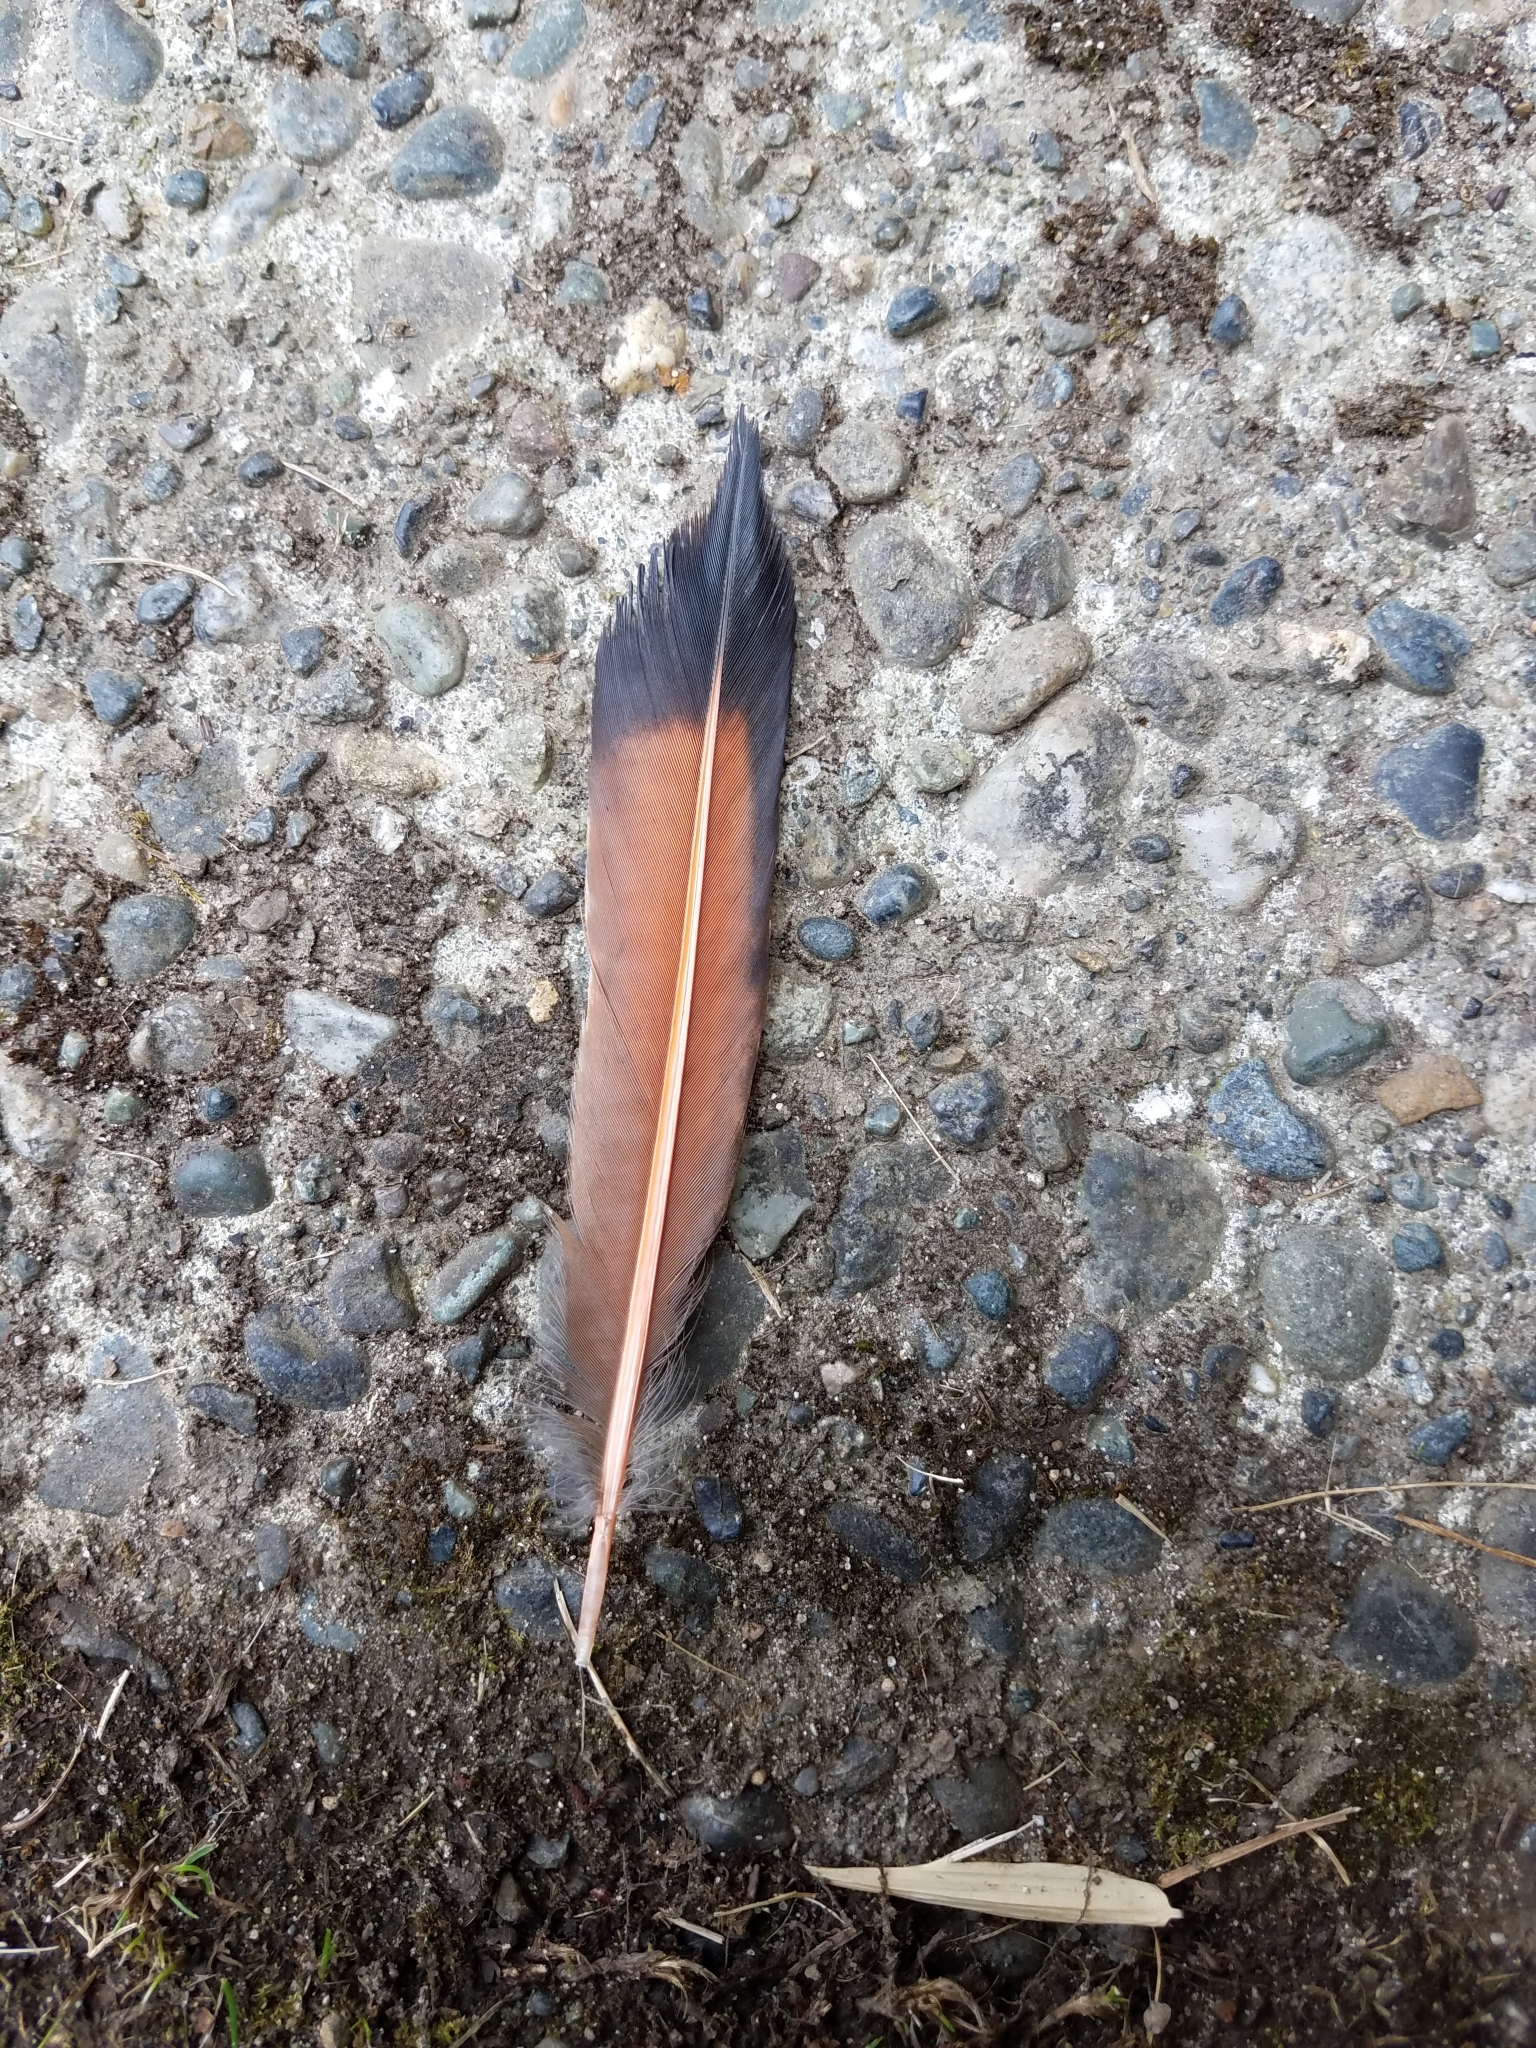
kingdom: Animalia
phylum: Chordata
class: Aves
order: Piciformes
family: Picidae
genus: Colaptes
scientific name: Colaptes auratus
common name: Northern flicker
